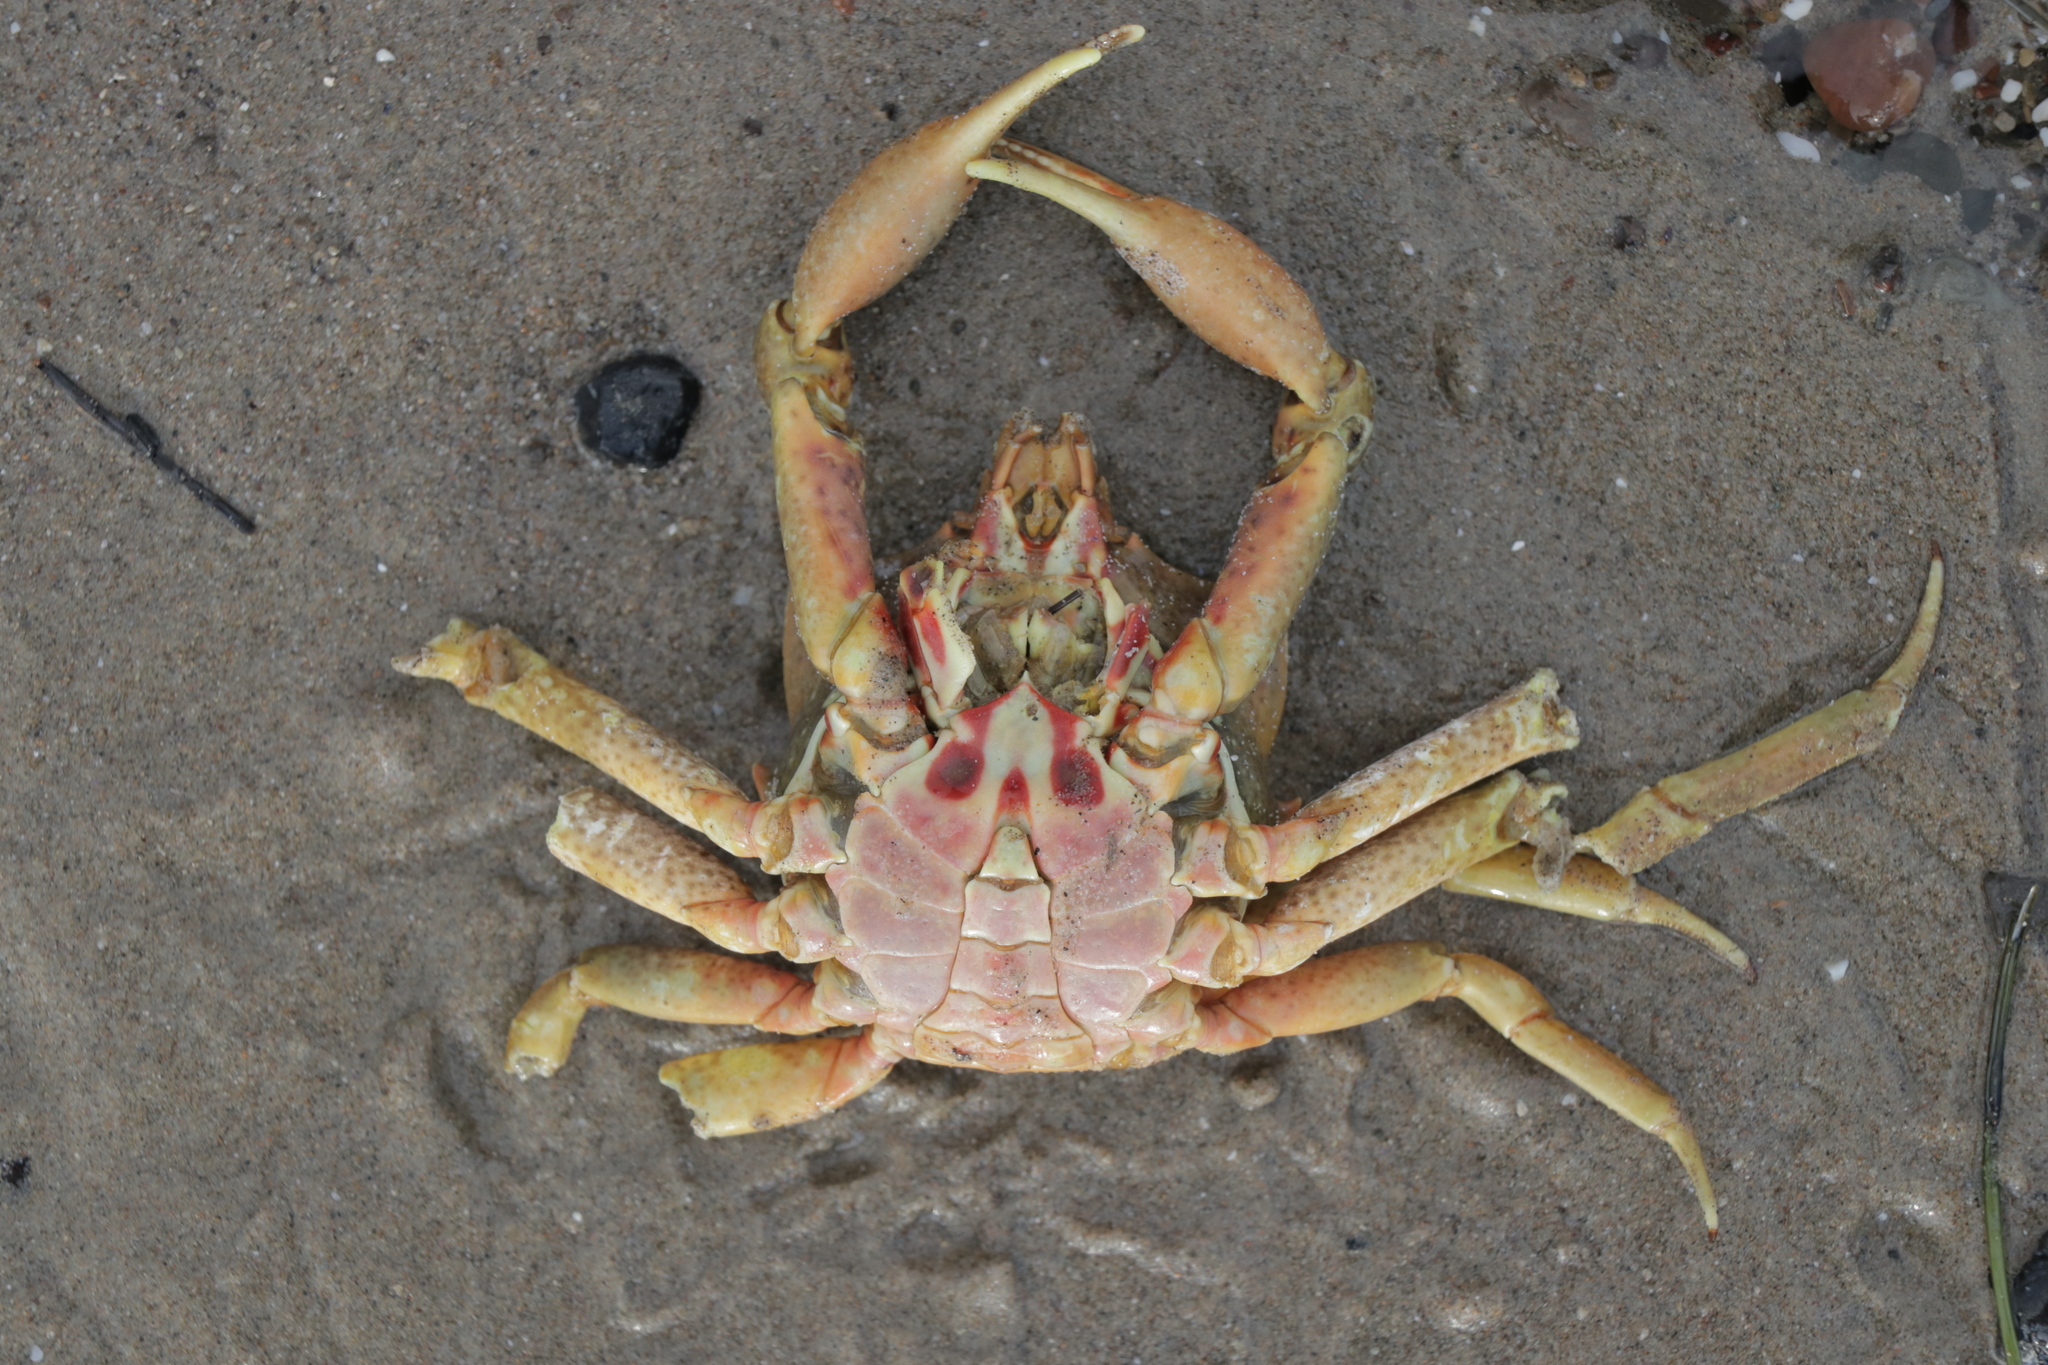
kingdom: Animalia
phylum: Arthropoda
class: Malacostraca
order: Decapoda
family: Epialtidae
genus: Pugettia
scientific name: Pugettia producta
